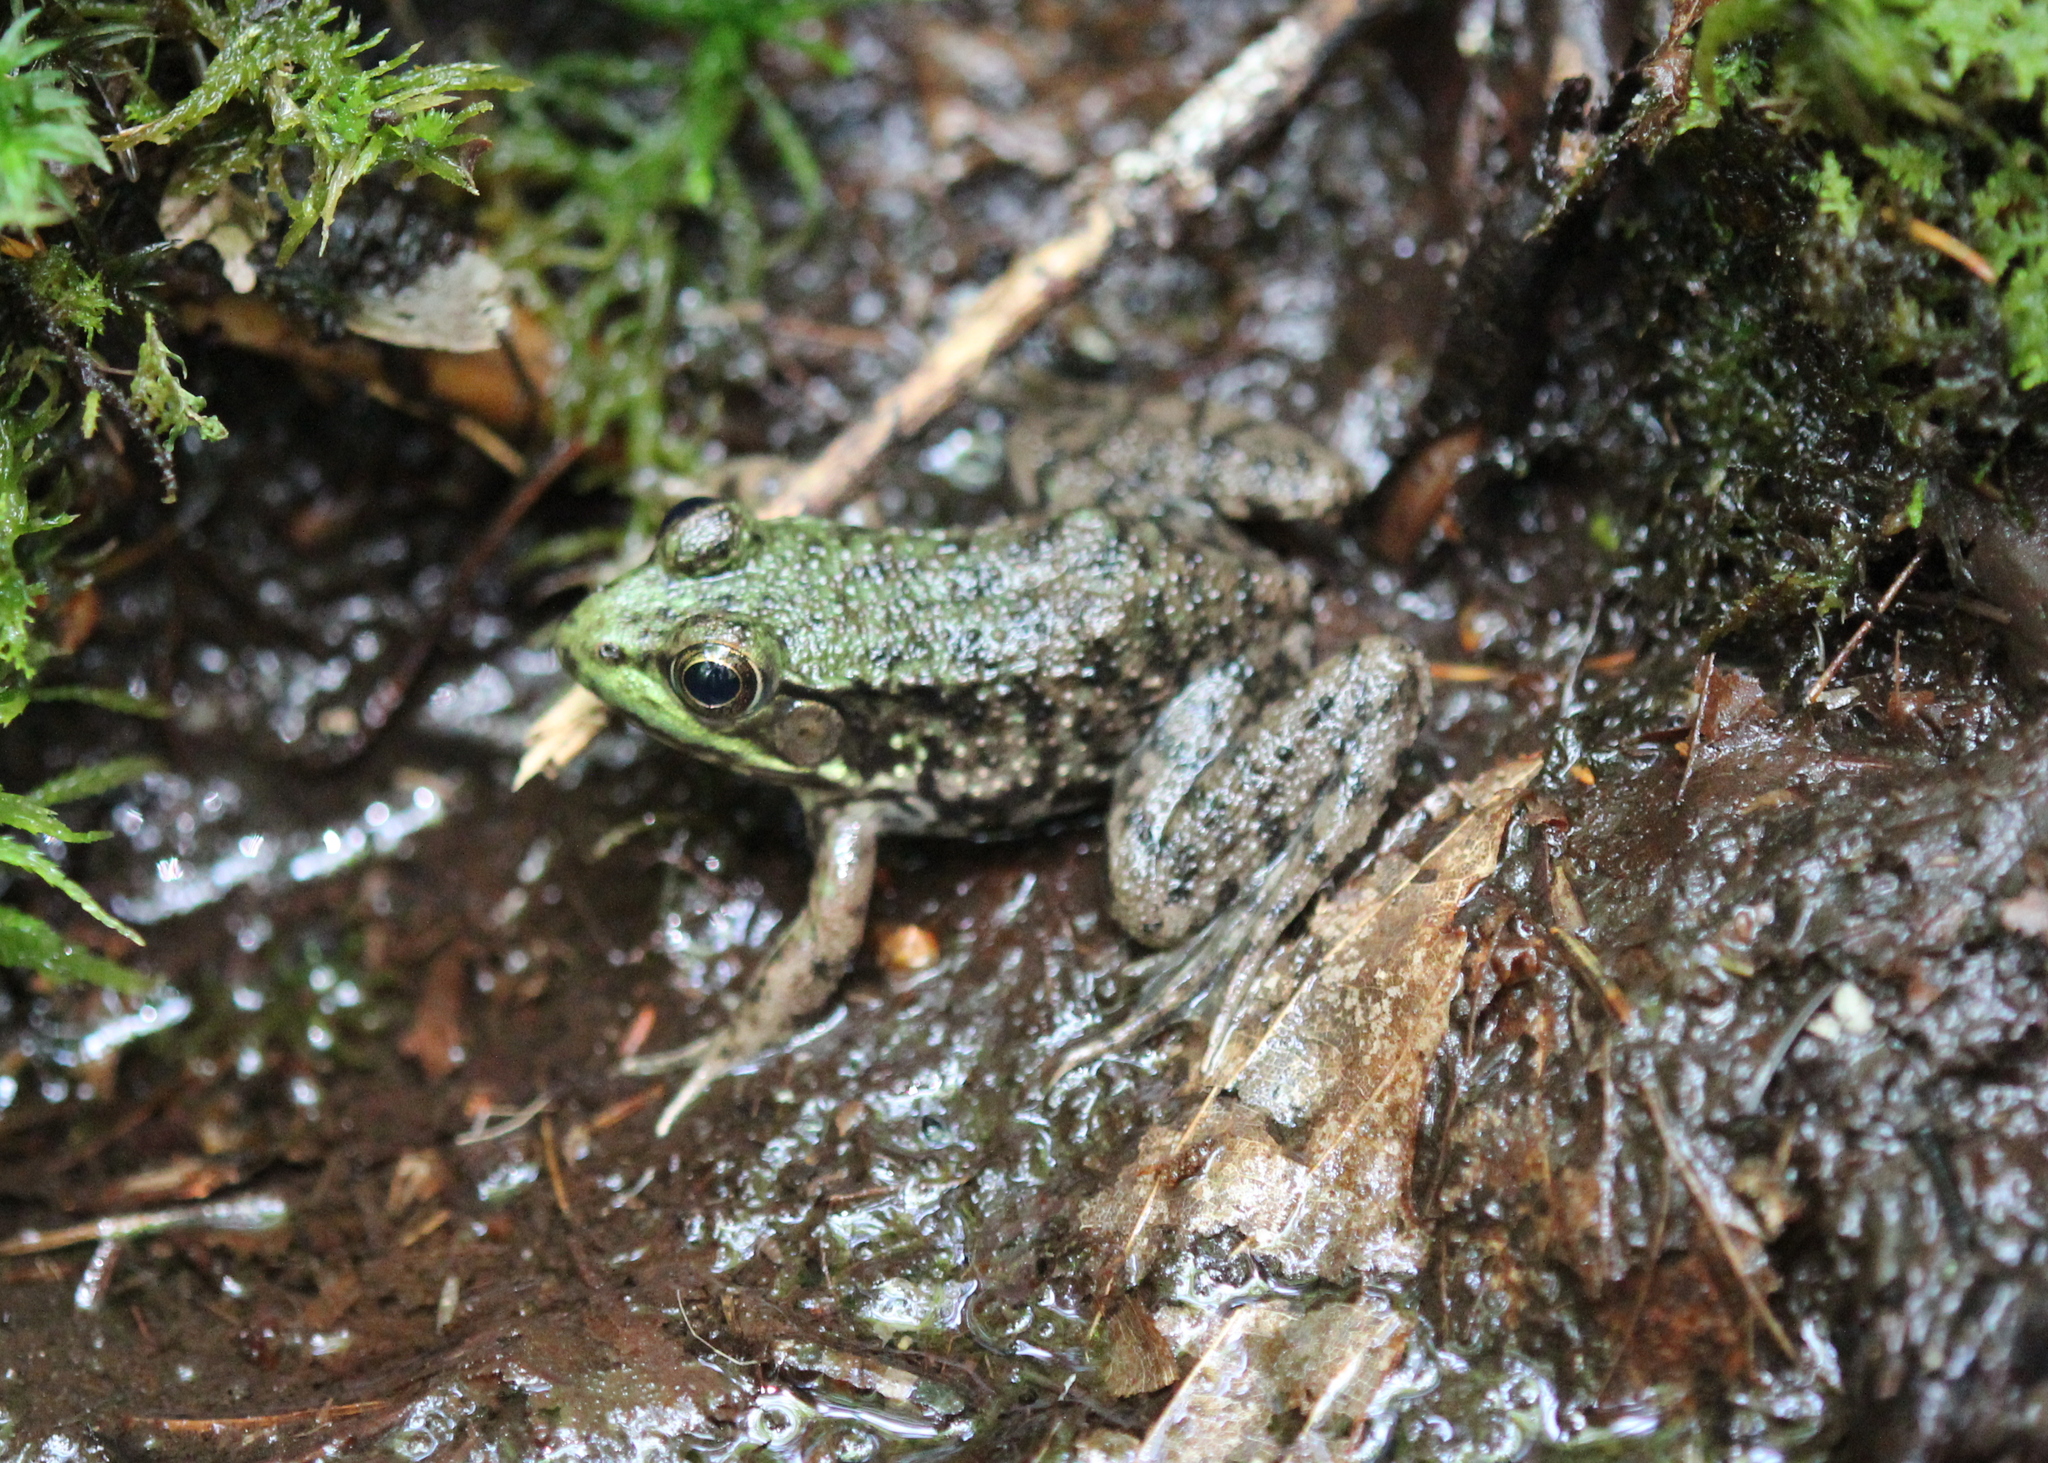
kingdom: Animalia
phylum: Chordata
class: Amphibia
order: Anura
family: Ranidae
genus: Lithobates
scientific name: Lithobates clamitans
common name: Green frog
